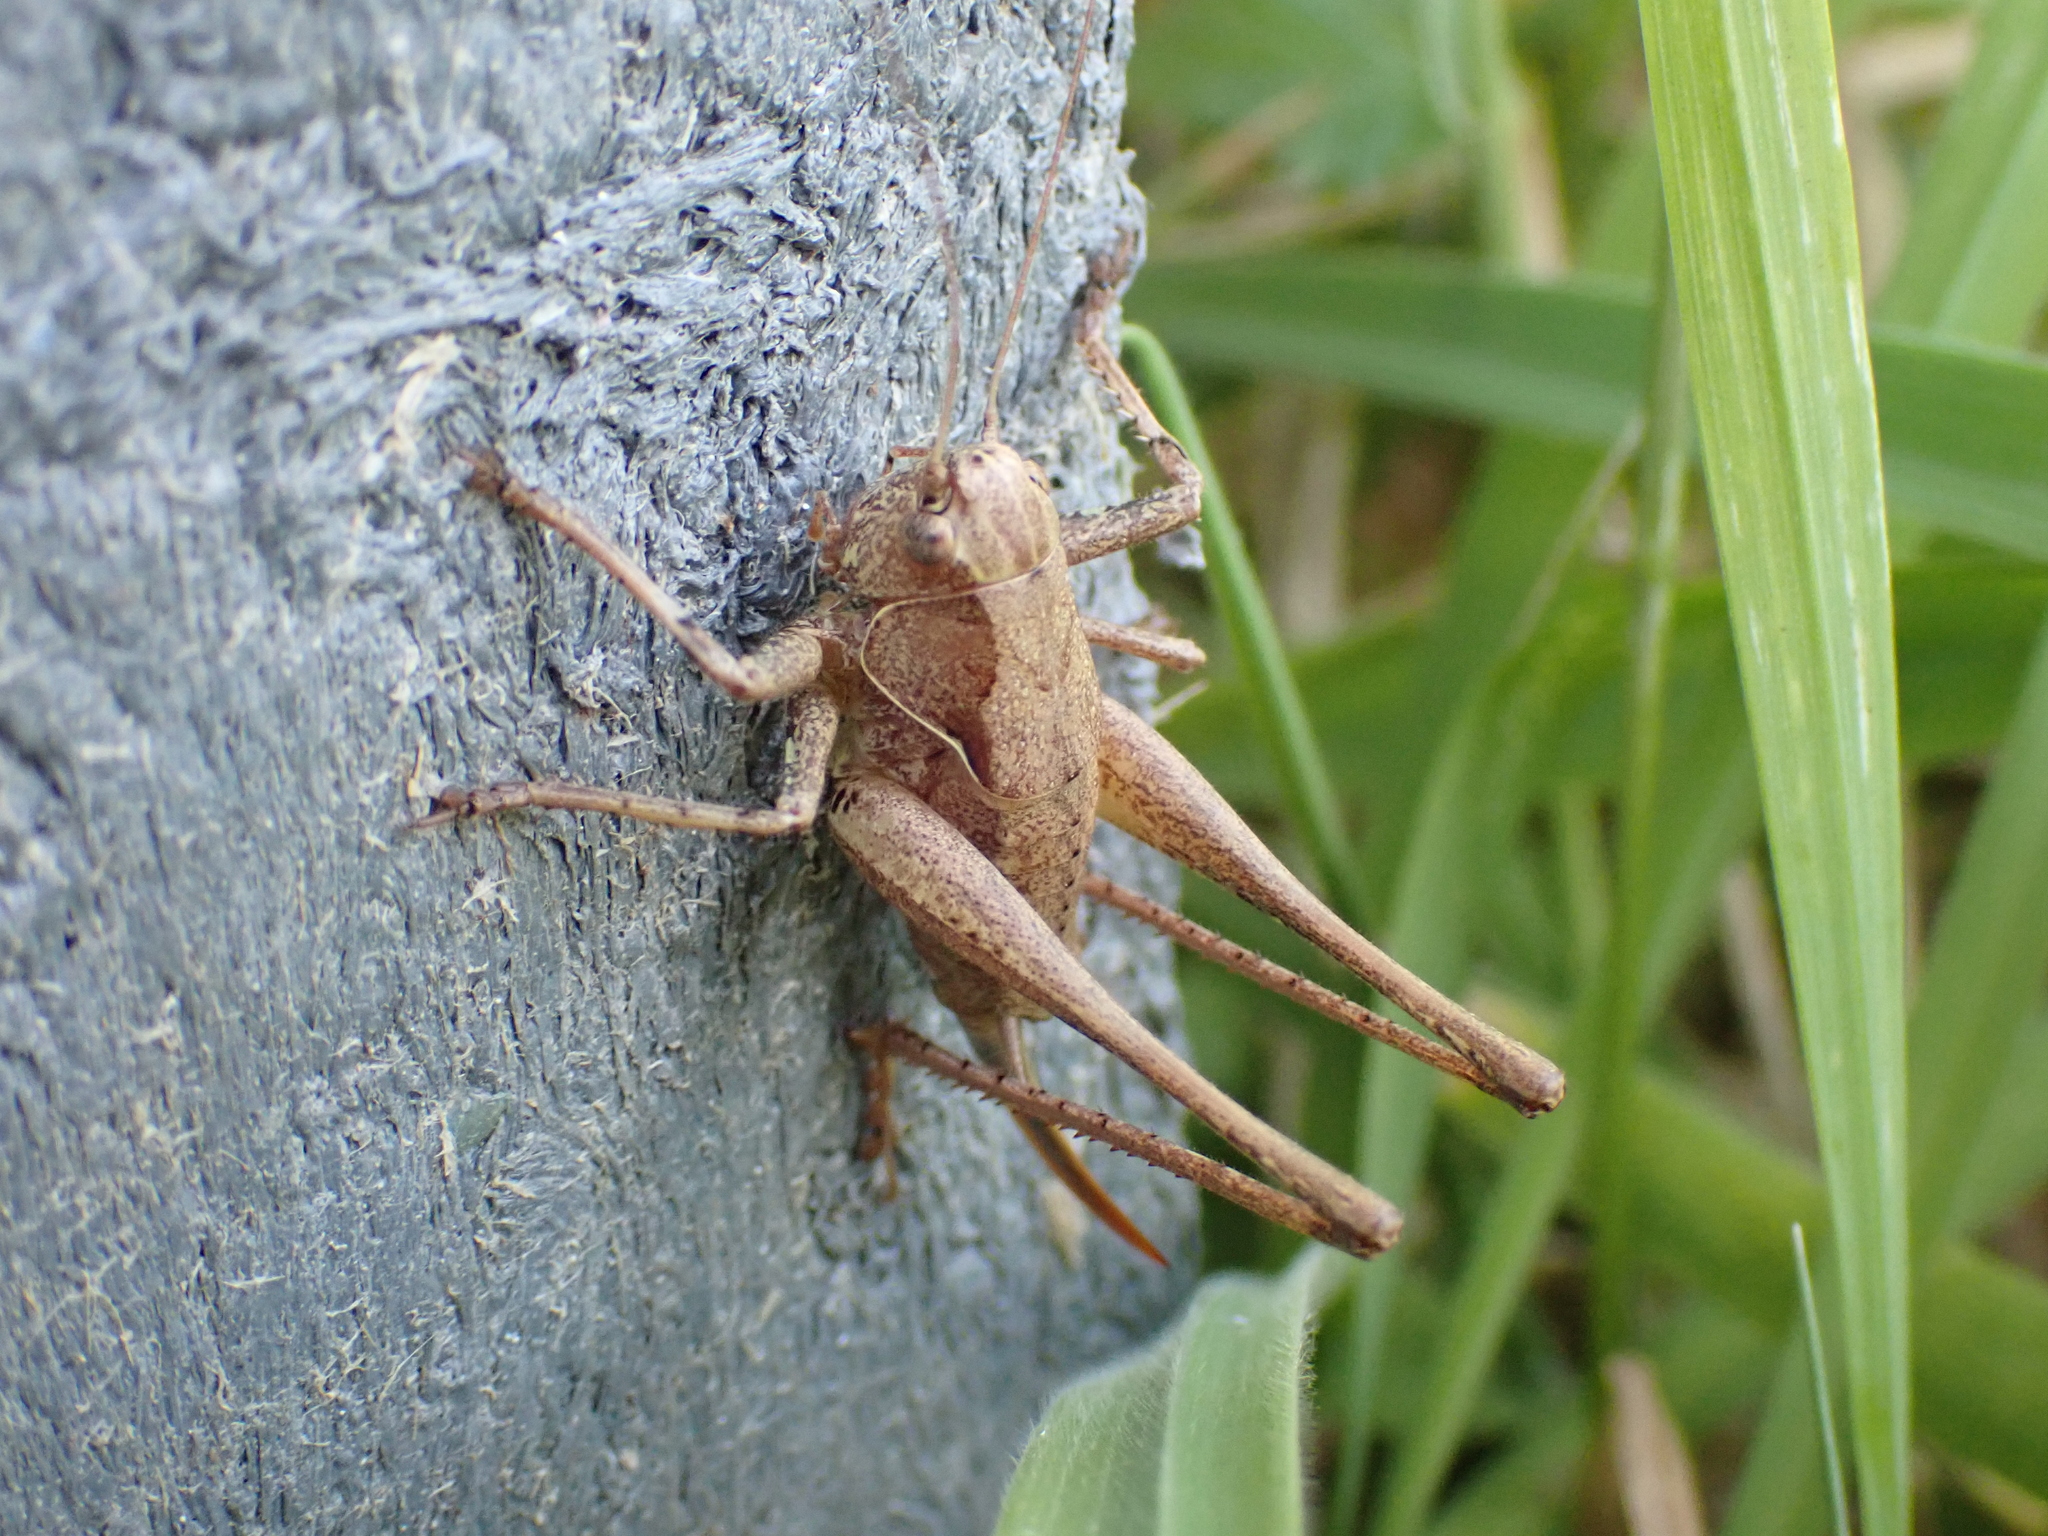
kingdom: Animalia
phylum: Arthropoda
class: Insecta
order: Orthoptera
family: Tettigoniidae
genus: Pholidoptera
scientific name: Pholidoptera griseoaptera
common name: Dark bush-cricket
